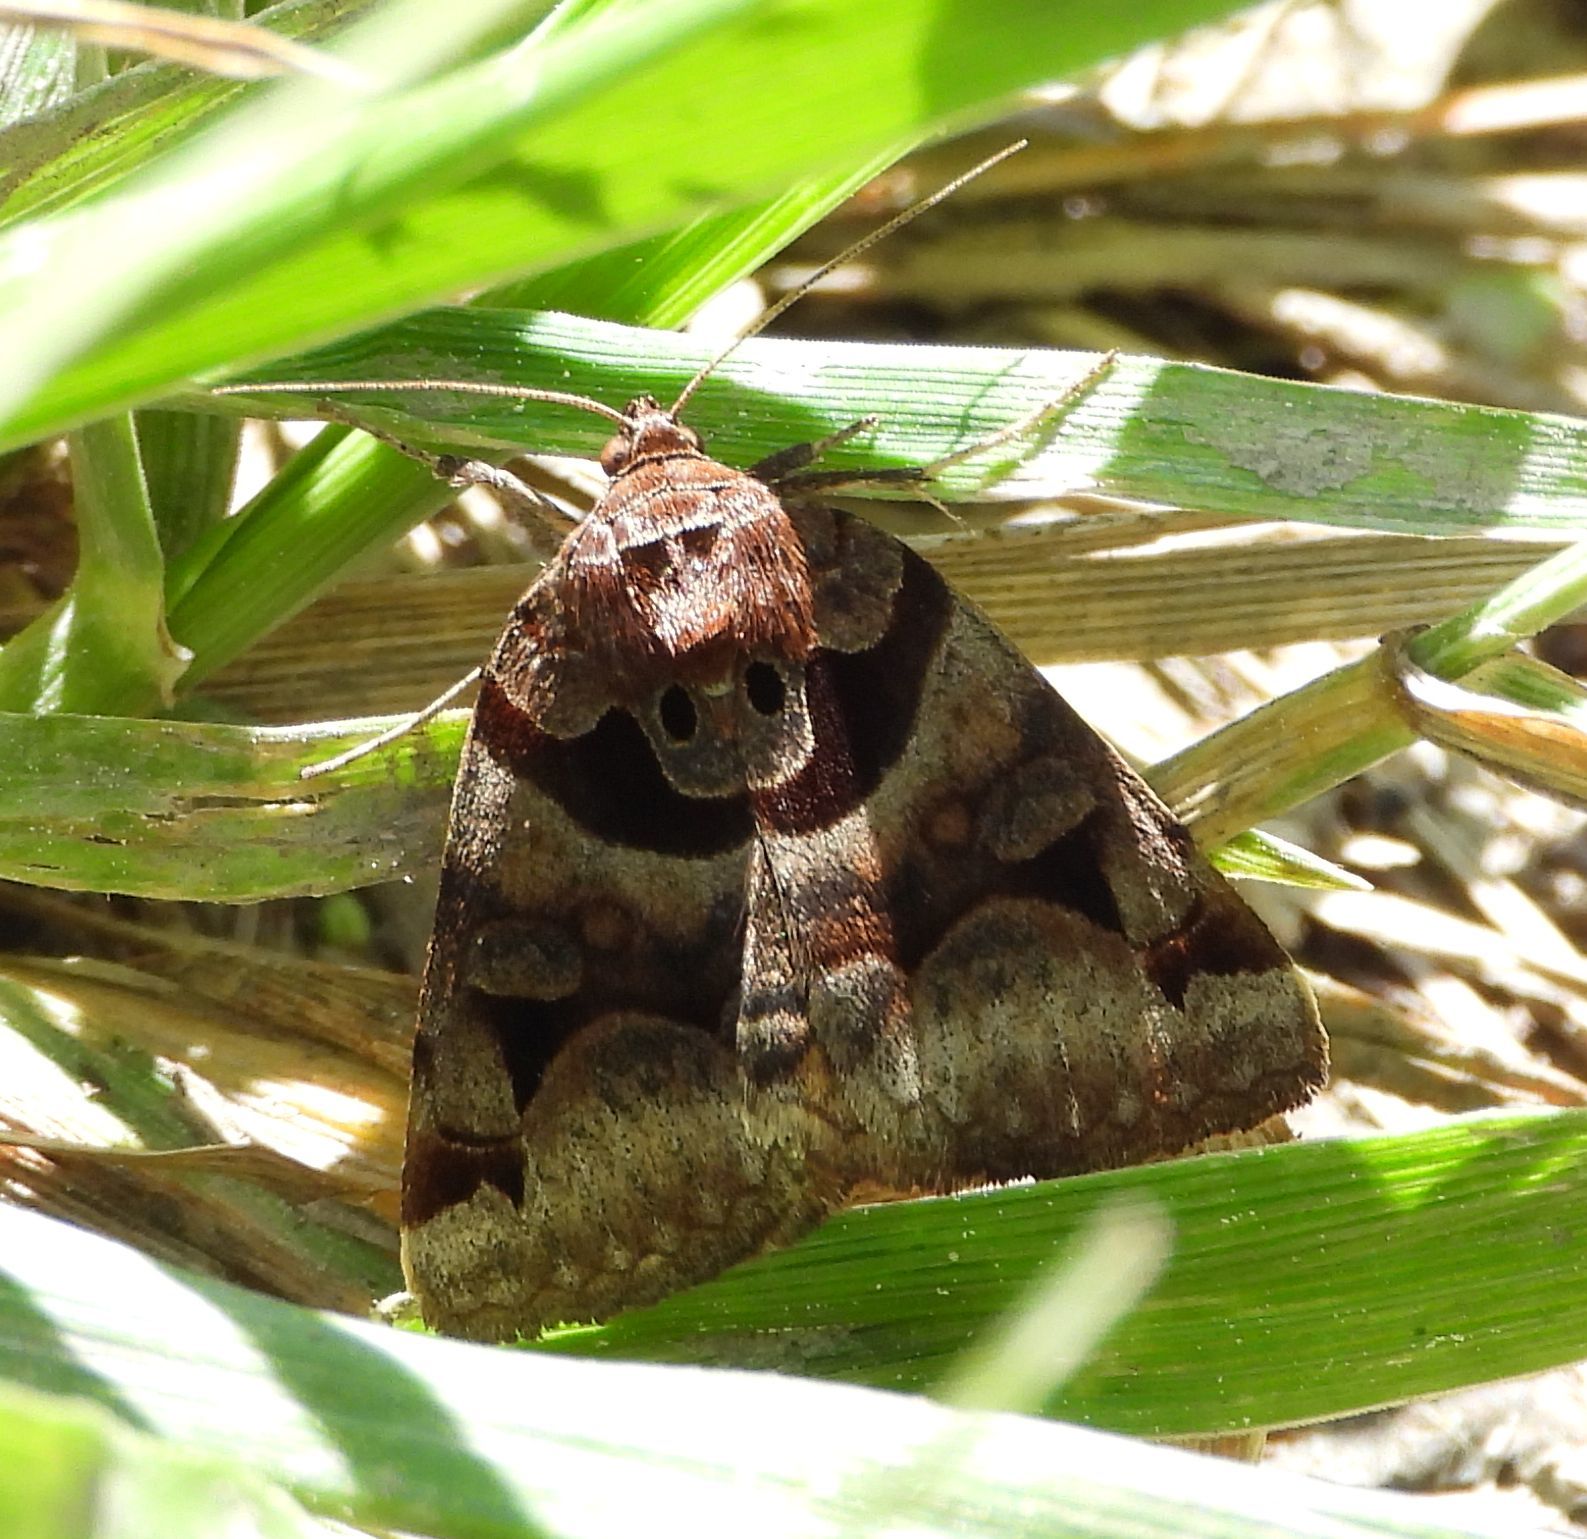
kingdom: Animalia
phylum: Arthropoda
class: Insecta
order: Lepidoptera
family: Erebidae
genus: Euclidia
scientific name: Euclidia cuspidea
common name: Toothed somberwing
